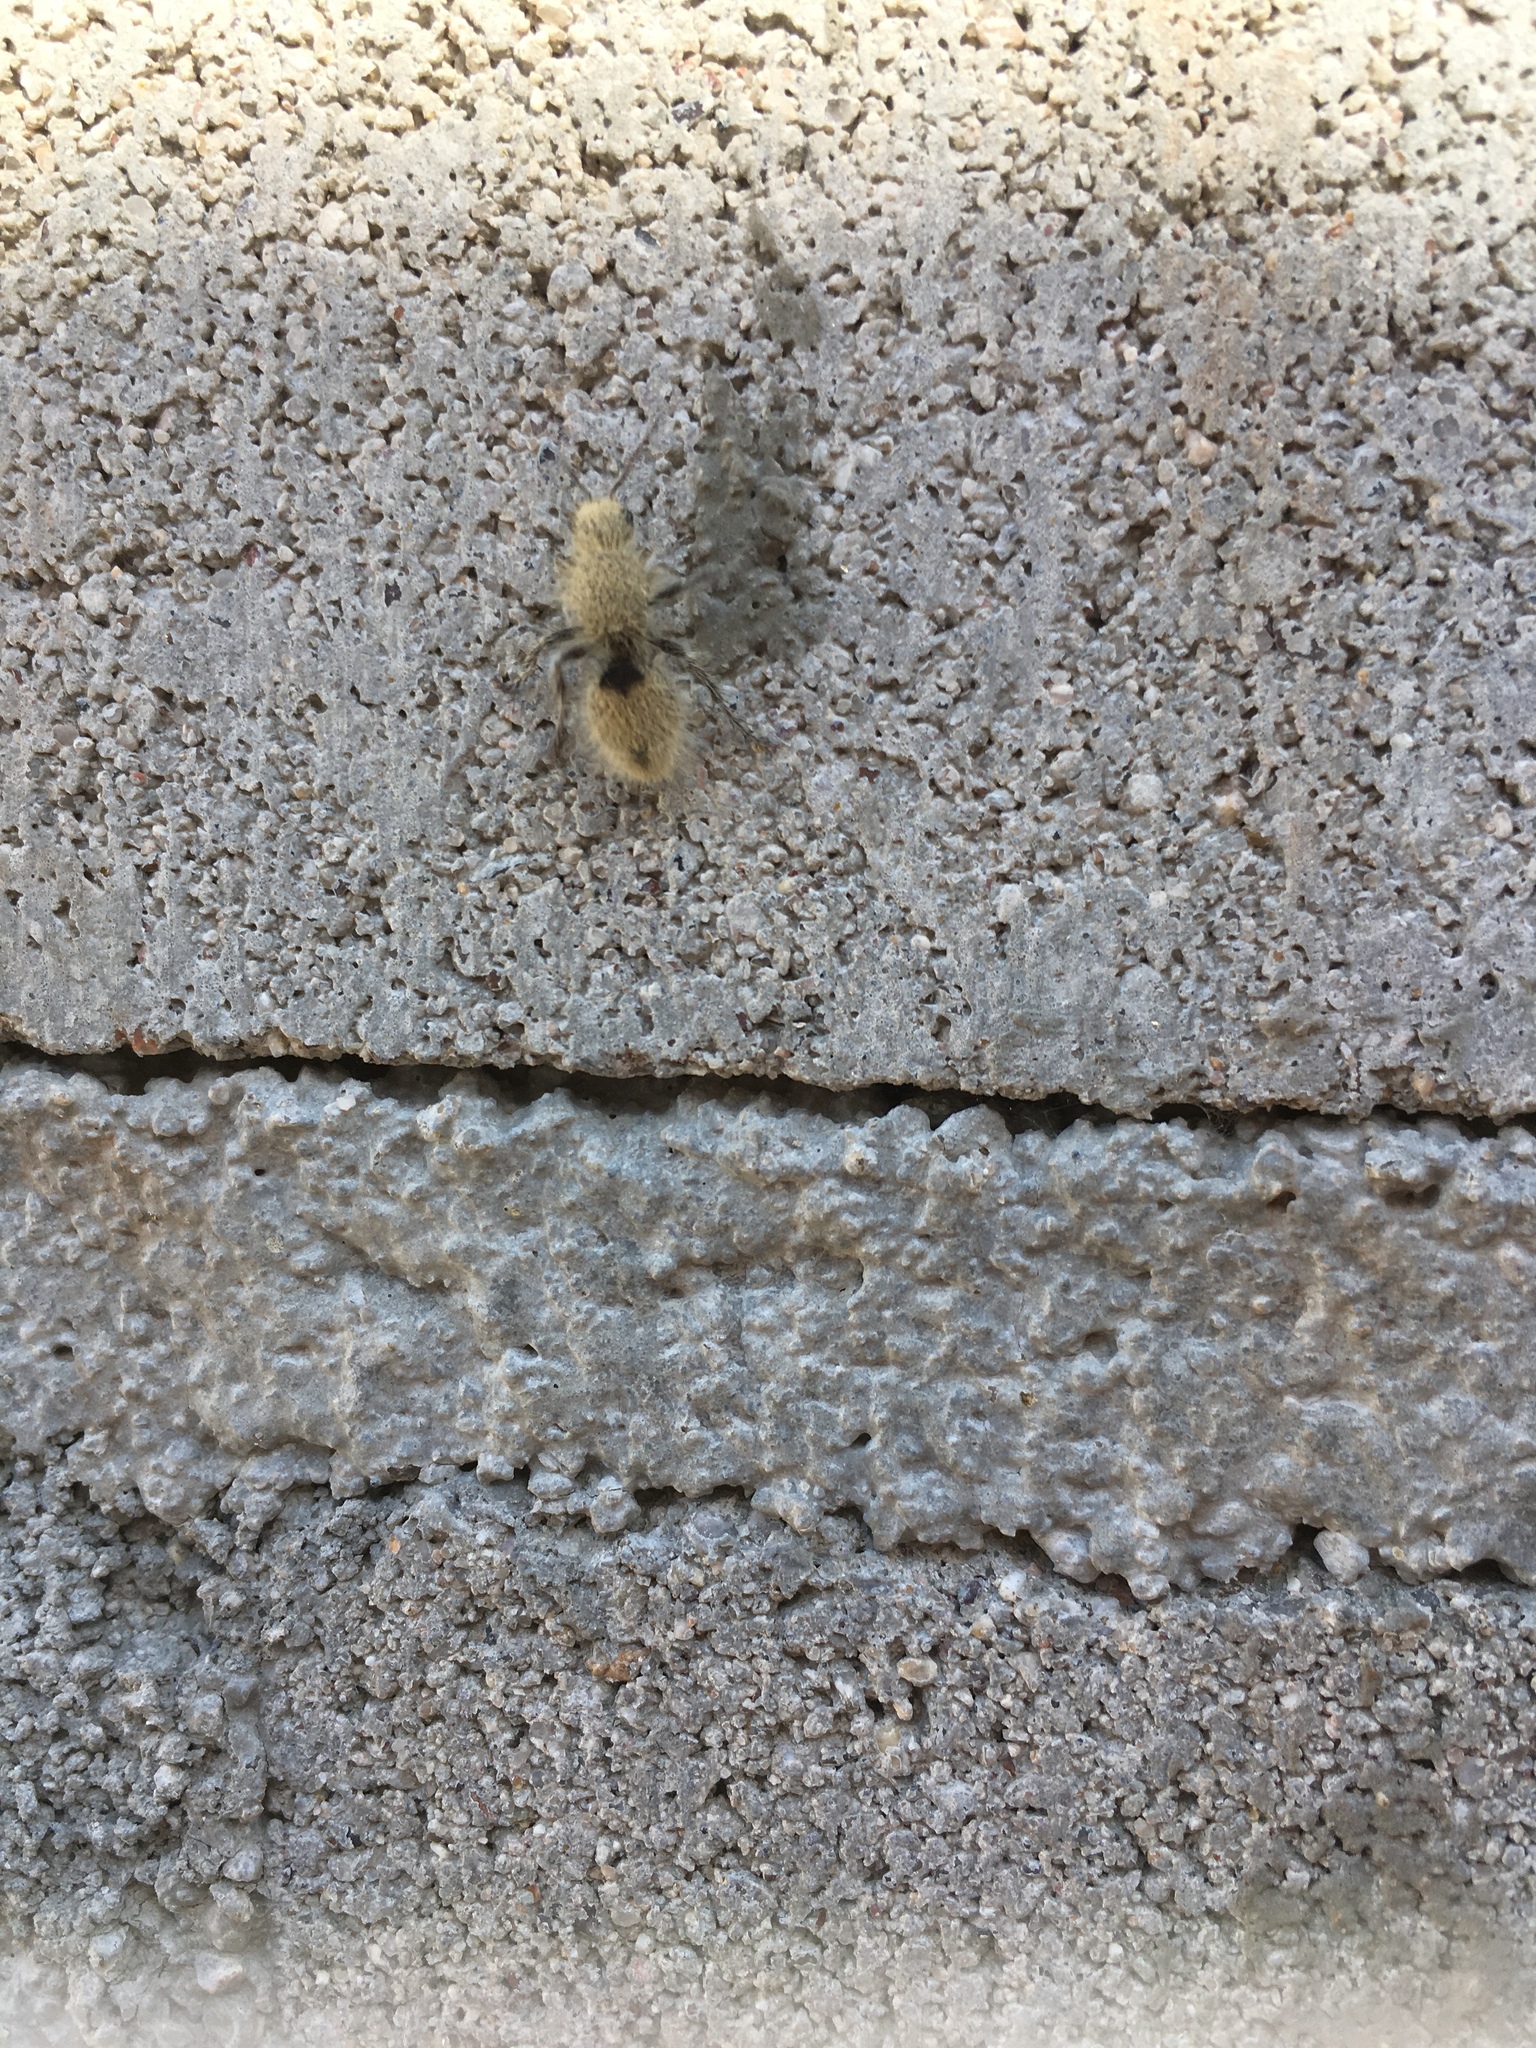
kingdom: Animalia
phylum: Arthropoda
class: Insecta
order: Hymenoptera
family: Mutillidae
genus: Dasymutilla
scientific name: Dasymutilla
